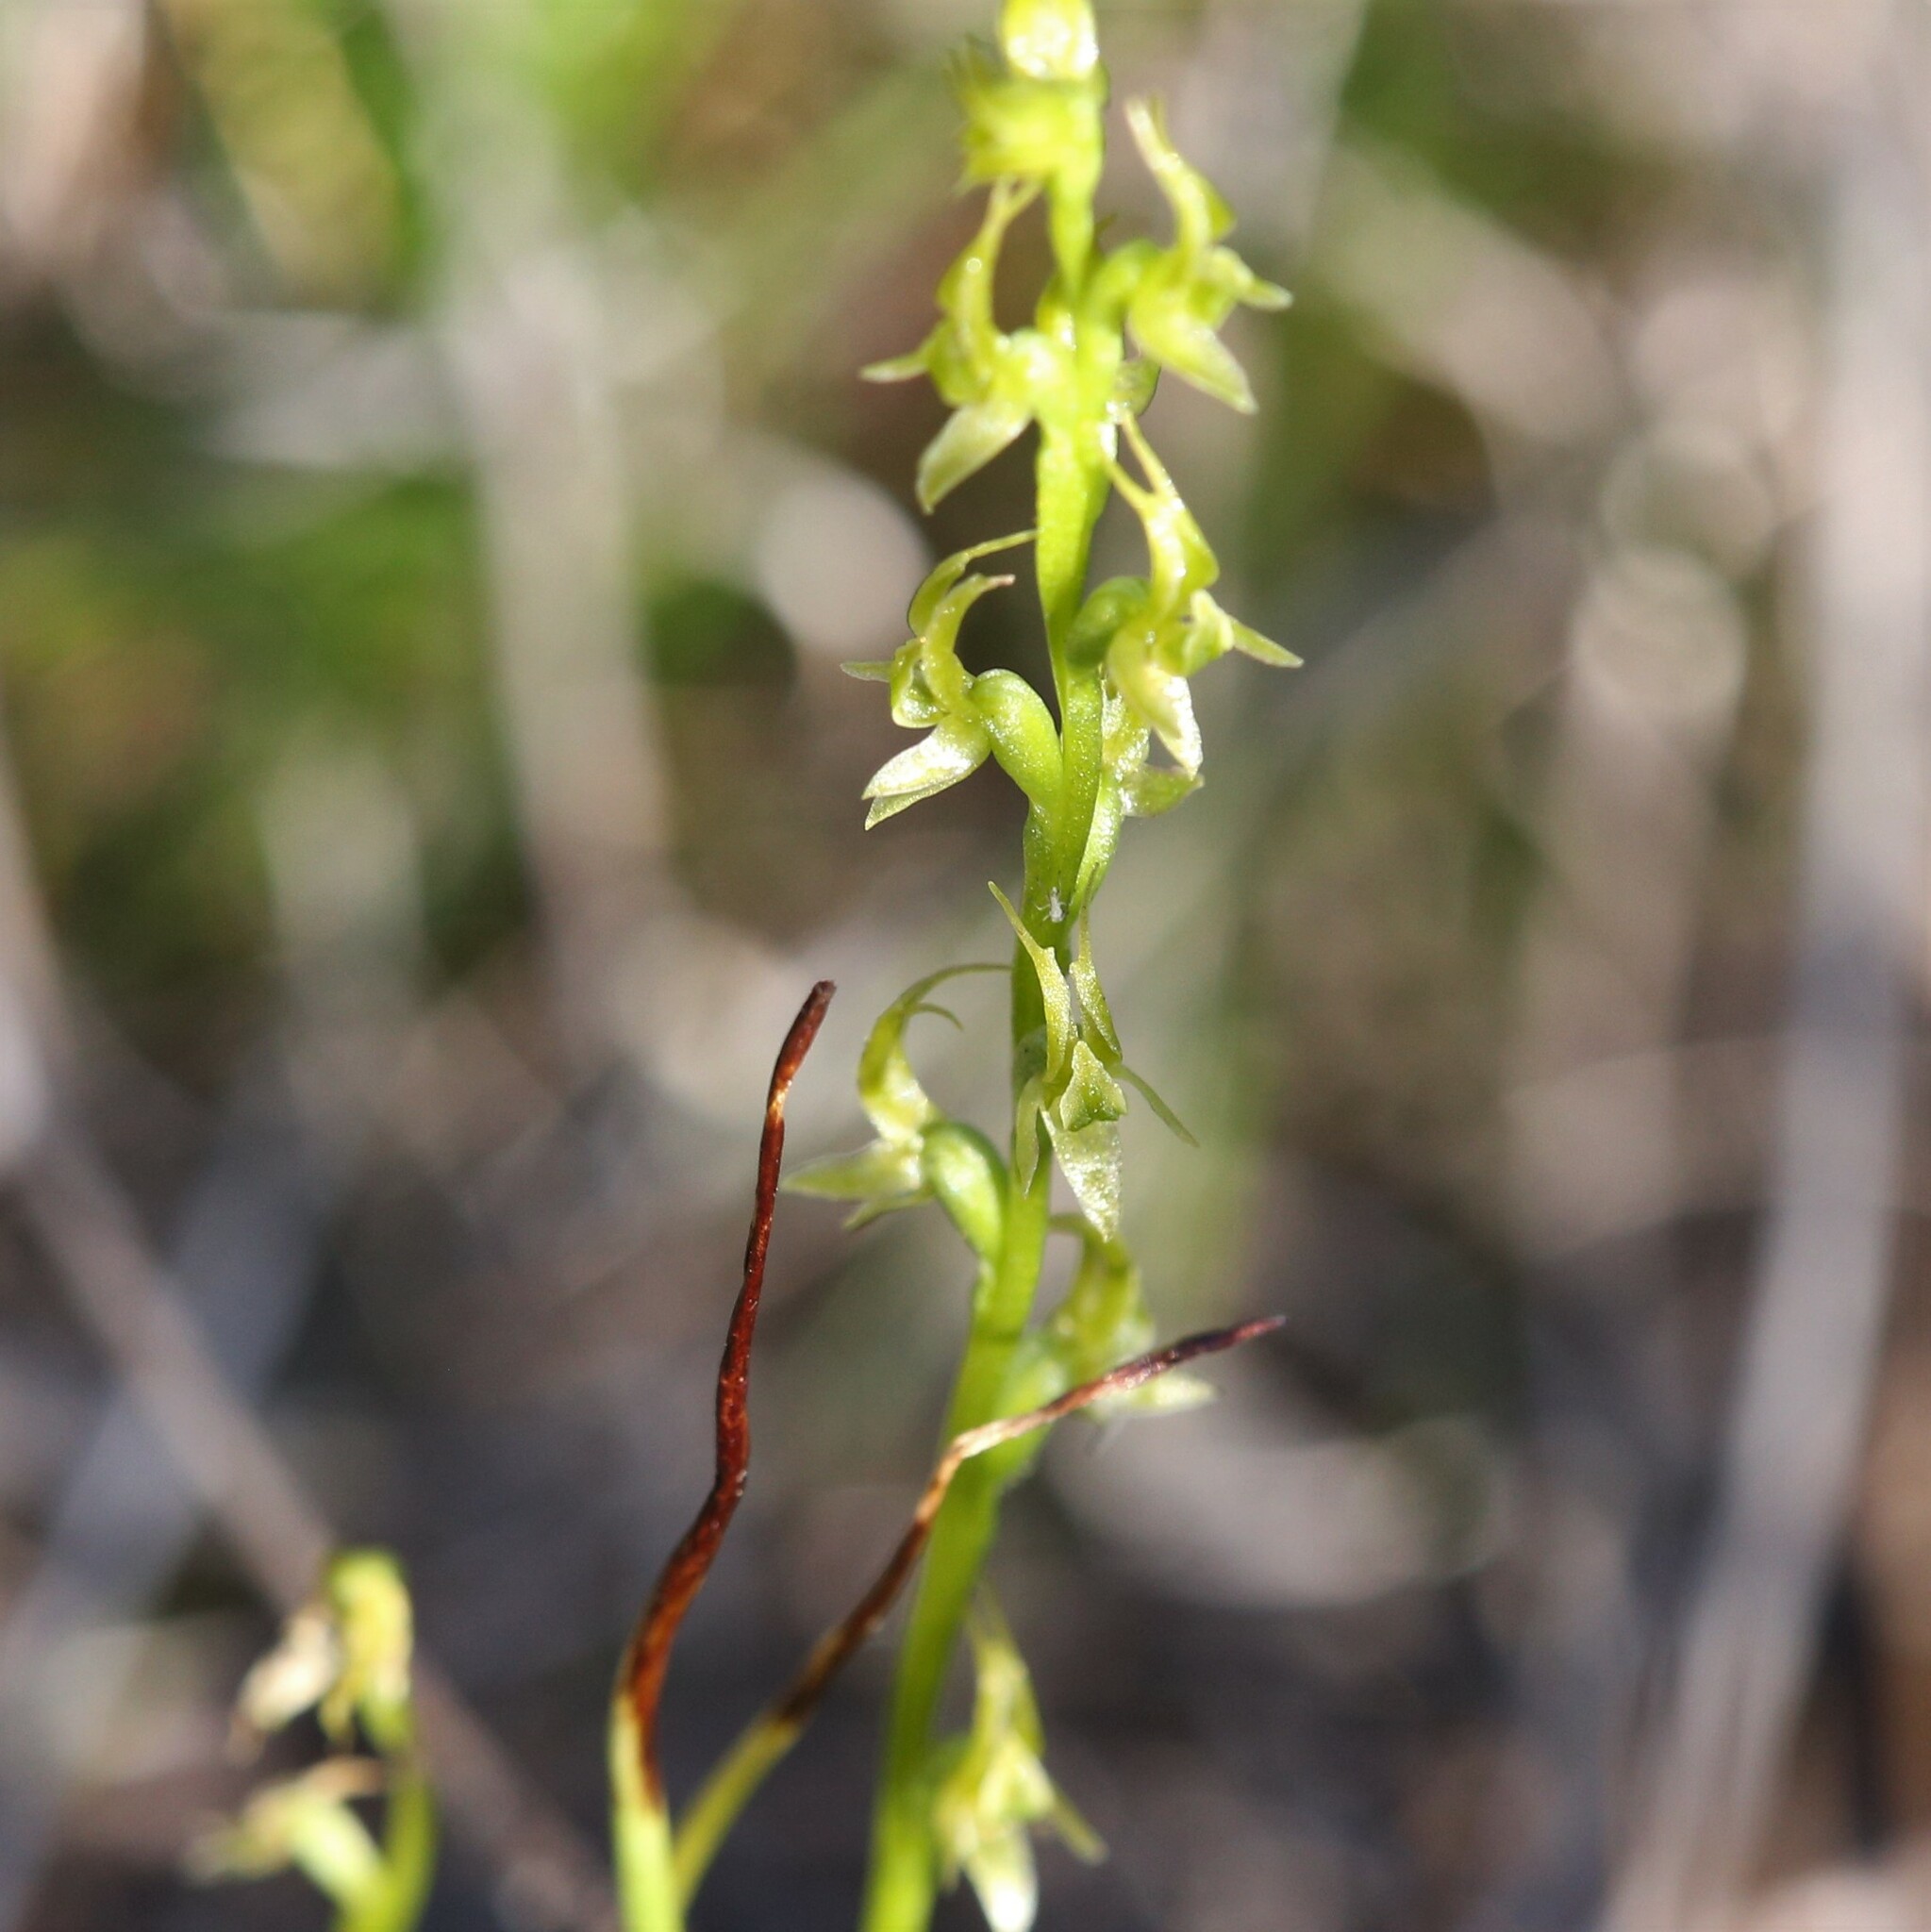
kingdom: Plantae
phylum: Tracheophyta
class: Liliopsida
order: Asparagales
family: Orchidaceae
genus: Prasophyllum
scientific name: Prasophyllum gracile
